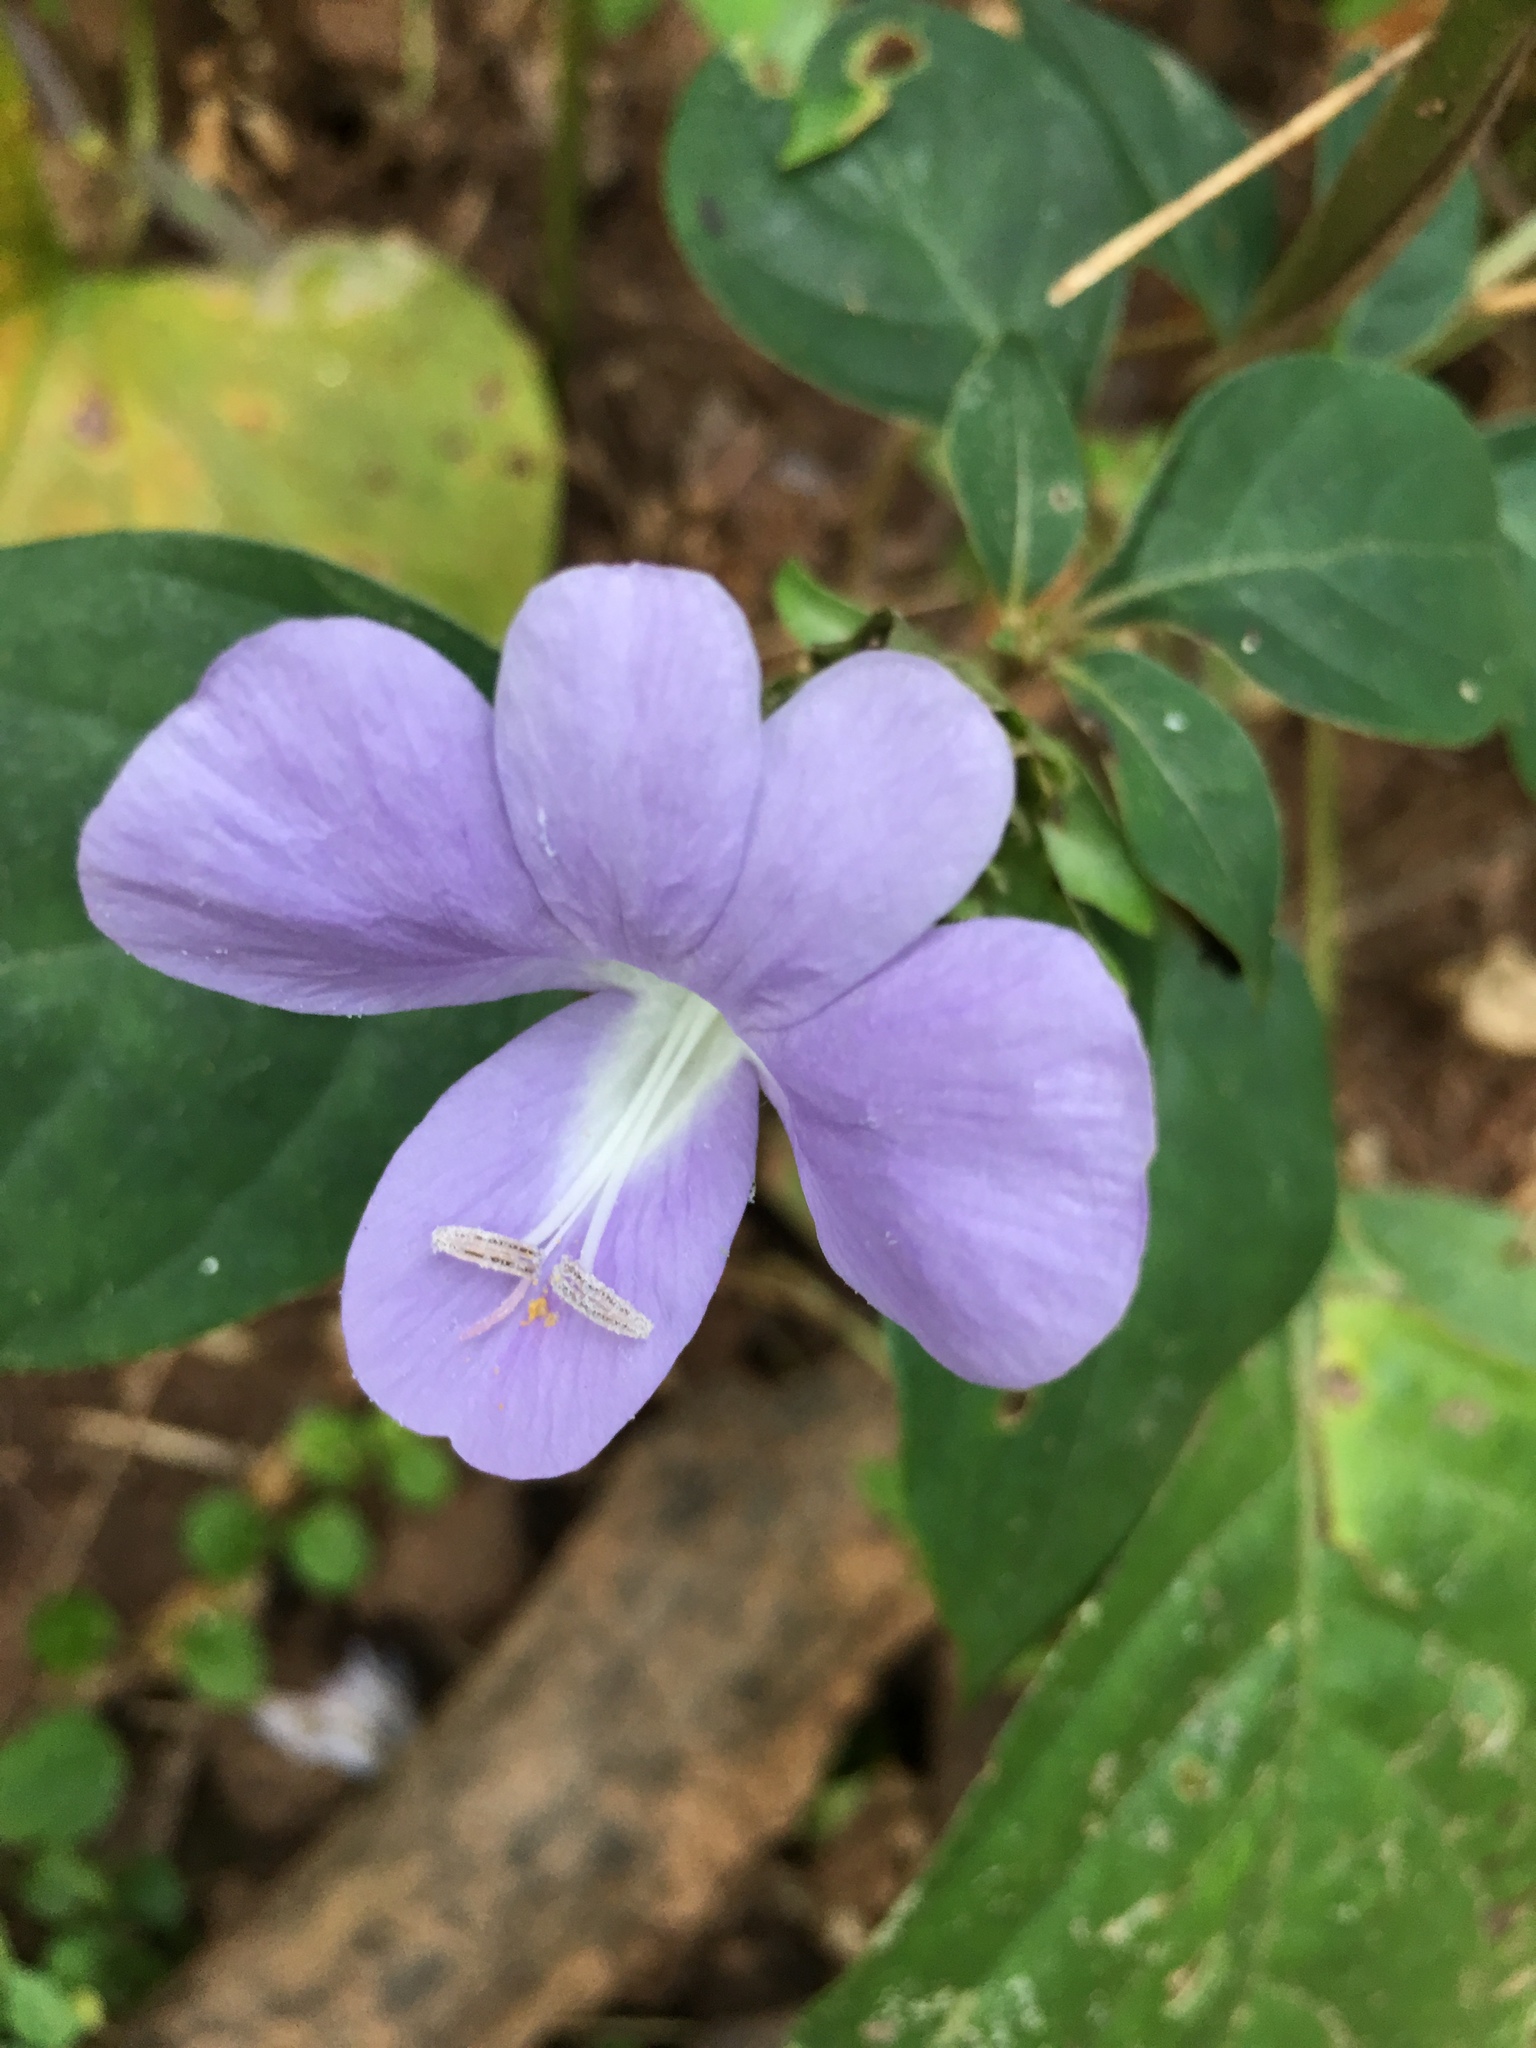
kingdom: Plantae
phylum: Tracheophyta
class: Magnoliopsida
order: Lamiales
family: Acanthaceae
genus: Barleria
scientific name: Barleria cristata
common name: Crested philippine violet
